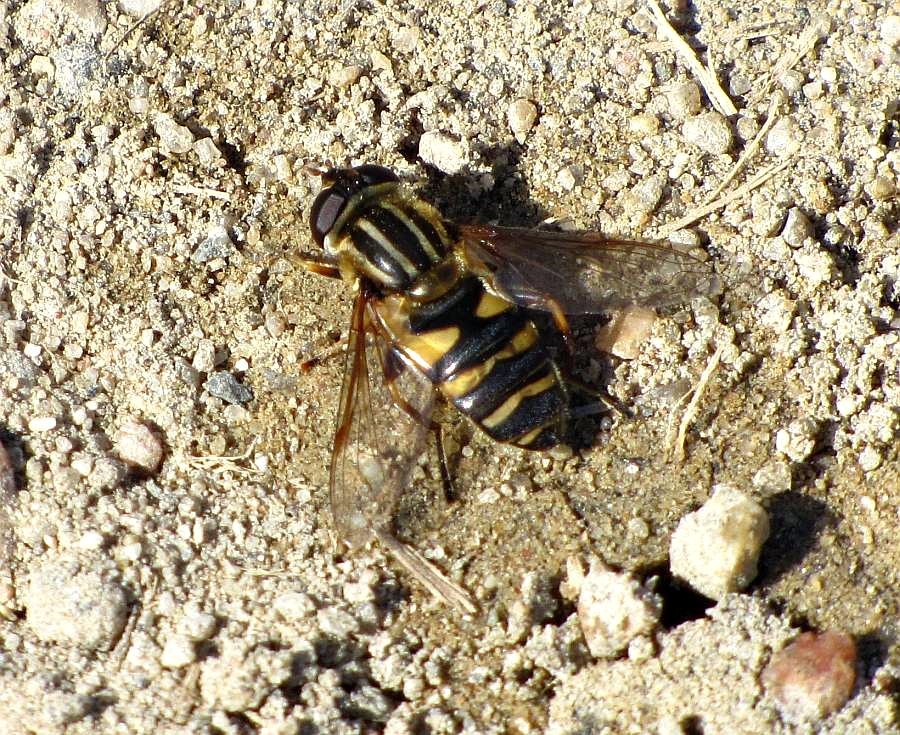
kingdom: Animalia
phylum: Arthropoda
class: Insecta
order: Diptera
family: Syrphidae
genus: Helophilus
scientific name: Helophilus fasciatus
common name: Narrow-headed marsh fly
